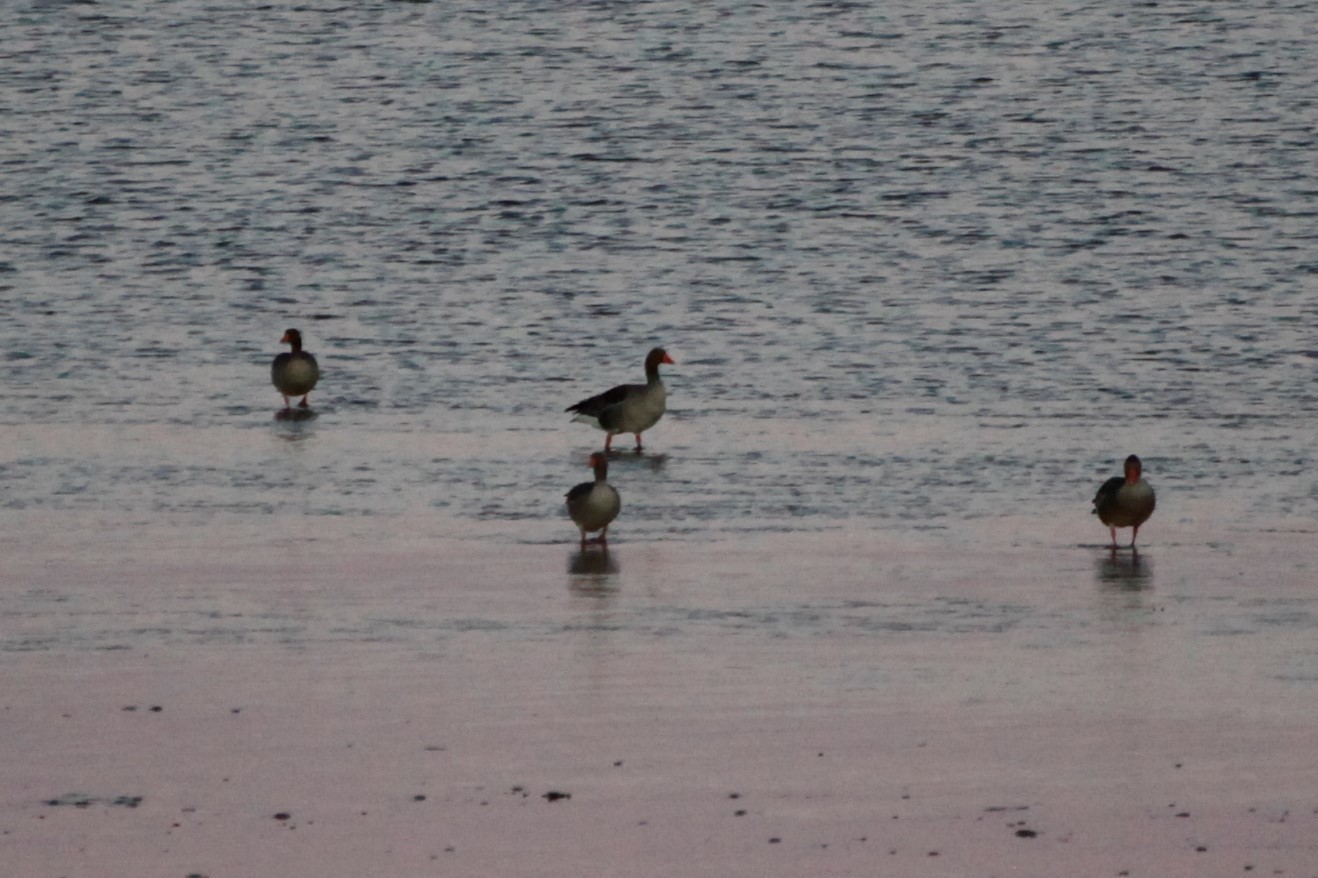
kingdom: Animalia
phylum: Chordata
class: Aves
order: Anseriformes
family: Anatidae
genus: Anser
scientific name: Anser anser
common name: Greylag goose
